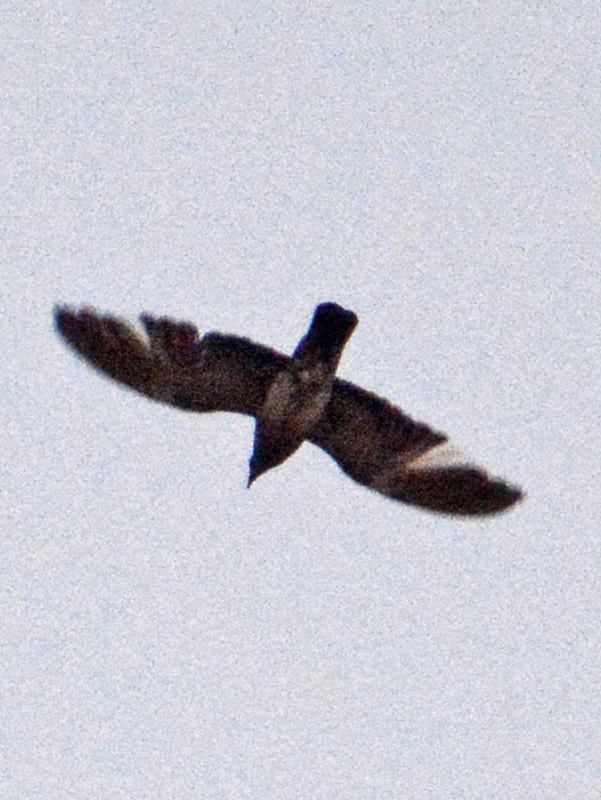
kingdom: Animalia
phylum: Chordata
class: Aves
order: Columbiformes
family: Columbidae
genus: Columba
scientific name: Columba livia
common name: Rock pigeon
